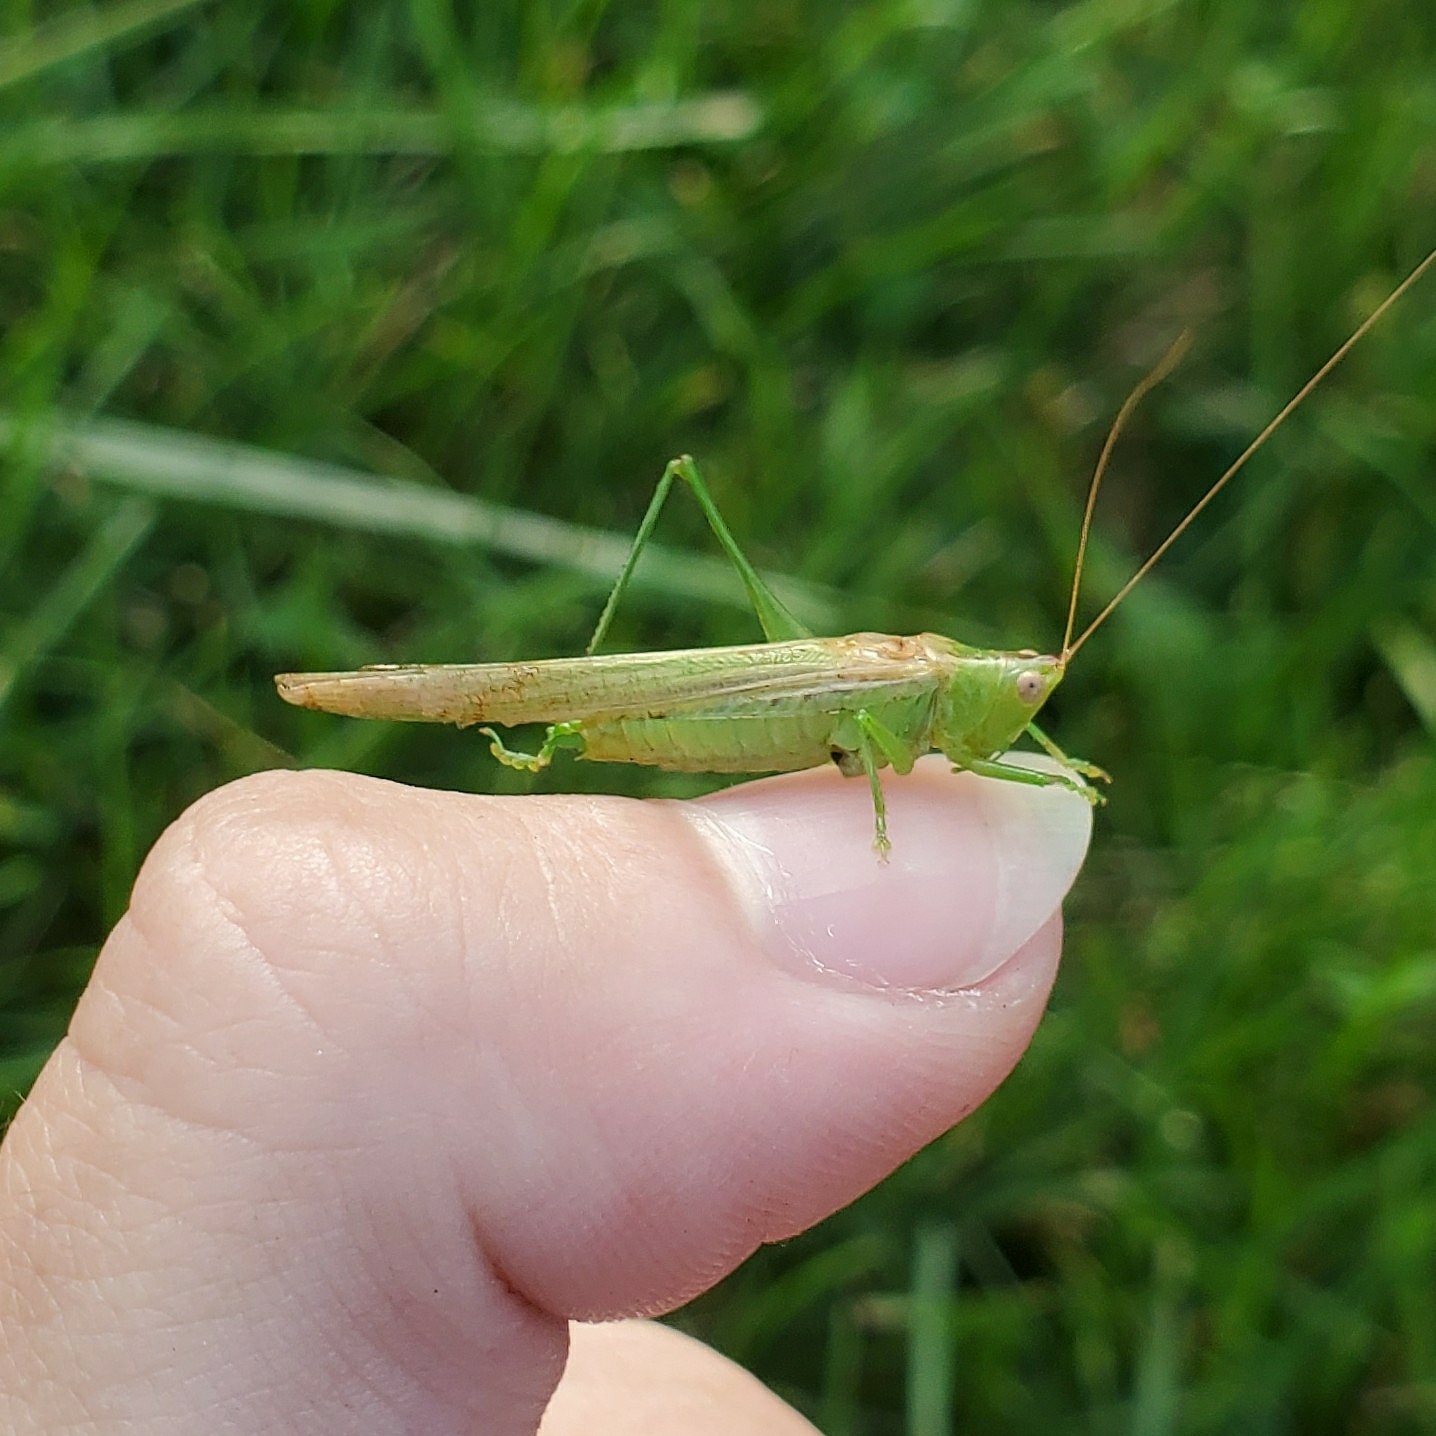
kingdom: Animalia
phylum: Arthropoda
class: Insecta
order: Orthoptera
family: Tettigoniidae
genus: Conocephalus
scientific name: Conocephalus fasciatus
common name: Slender meadow katydid
